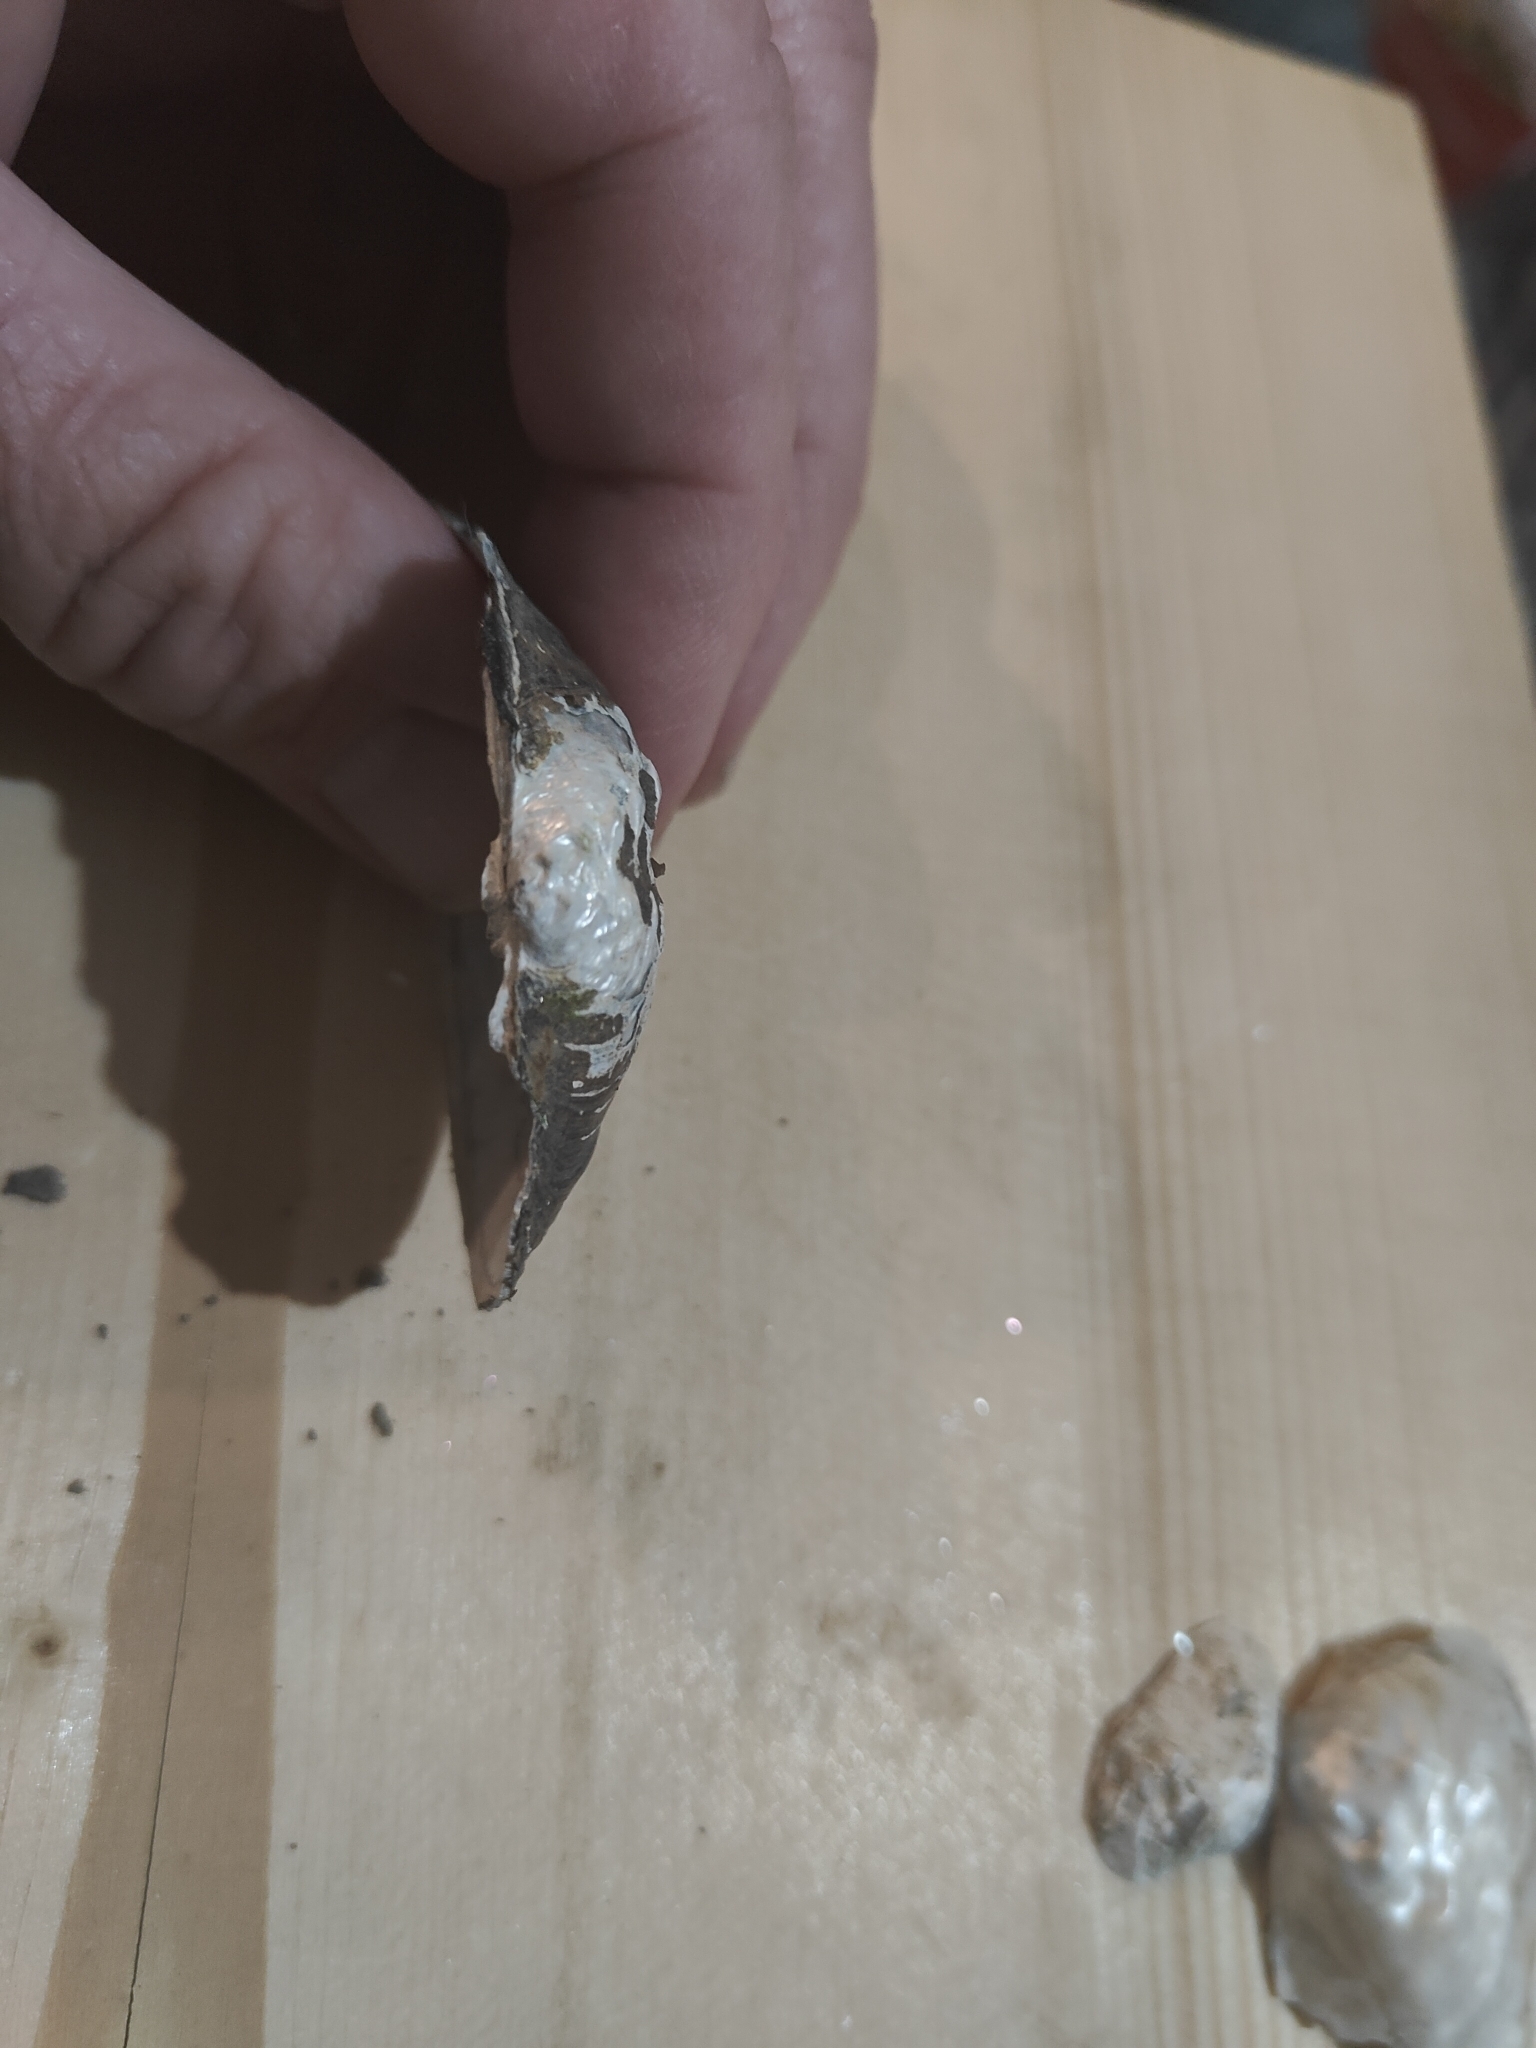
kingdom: Animalia
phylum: Mollusca
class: Bivalvia
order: Unionida
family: Unionidae
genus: Arcidens
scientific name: Arcidens confragosus
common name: Rock pocketbook
